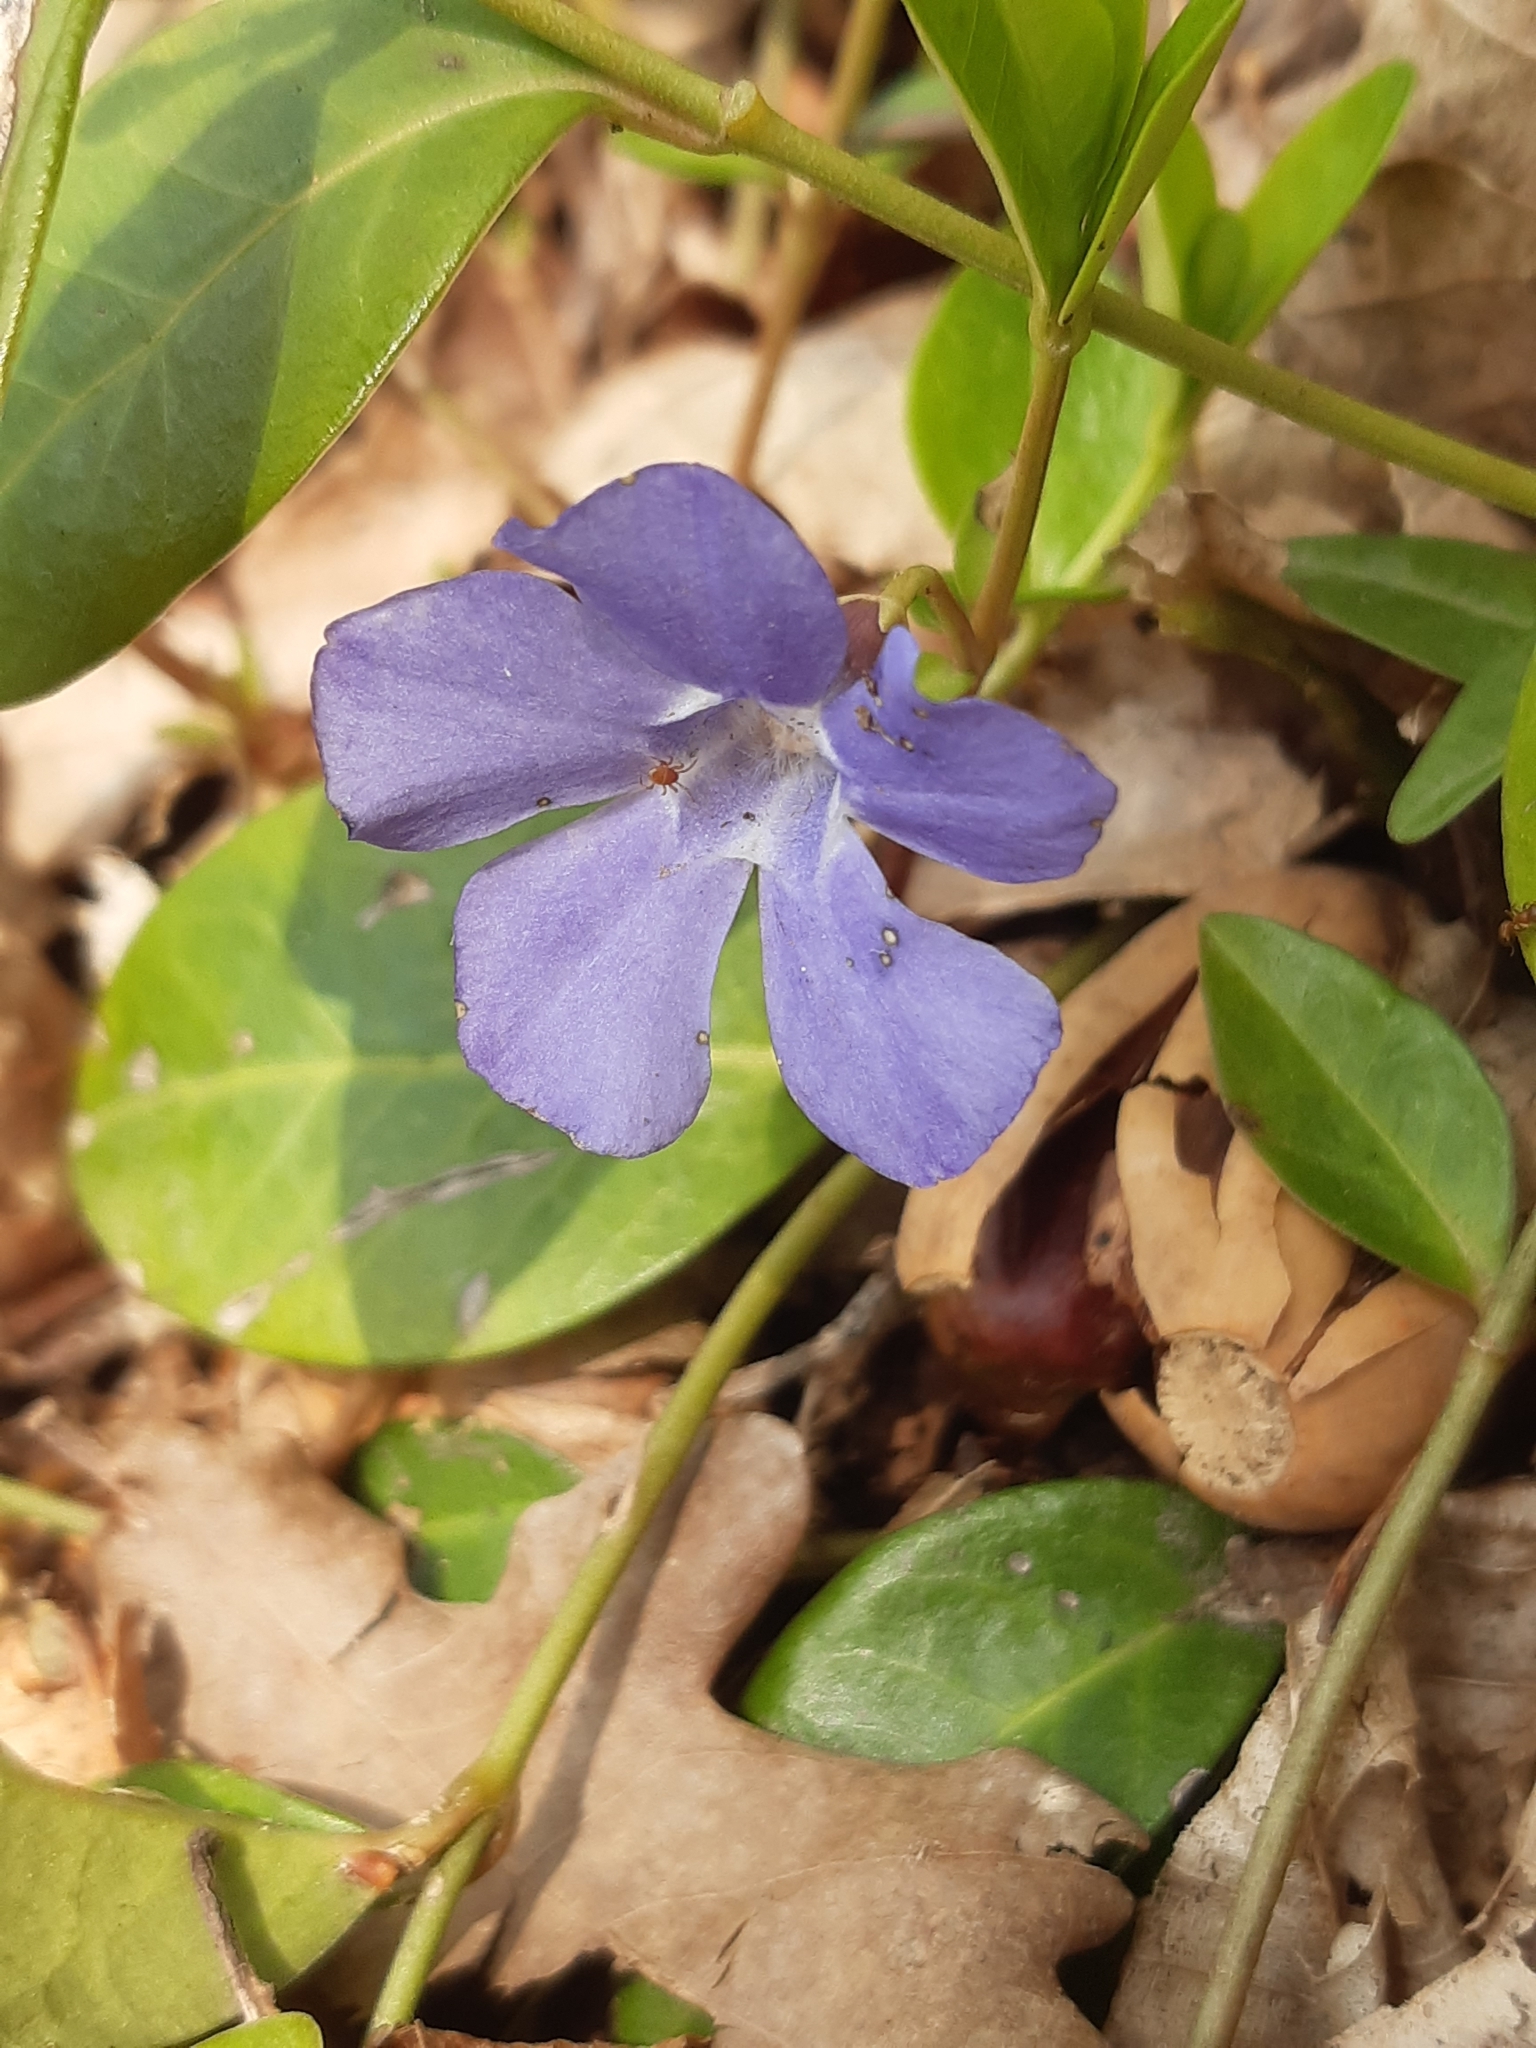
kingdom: Plantae
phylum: Tracheophyta
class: Magnoliopsida
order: Gentianales
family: Apocynaceae
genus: Vinca
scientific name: Vinca minor
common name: Lesser periwinkle
